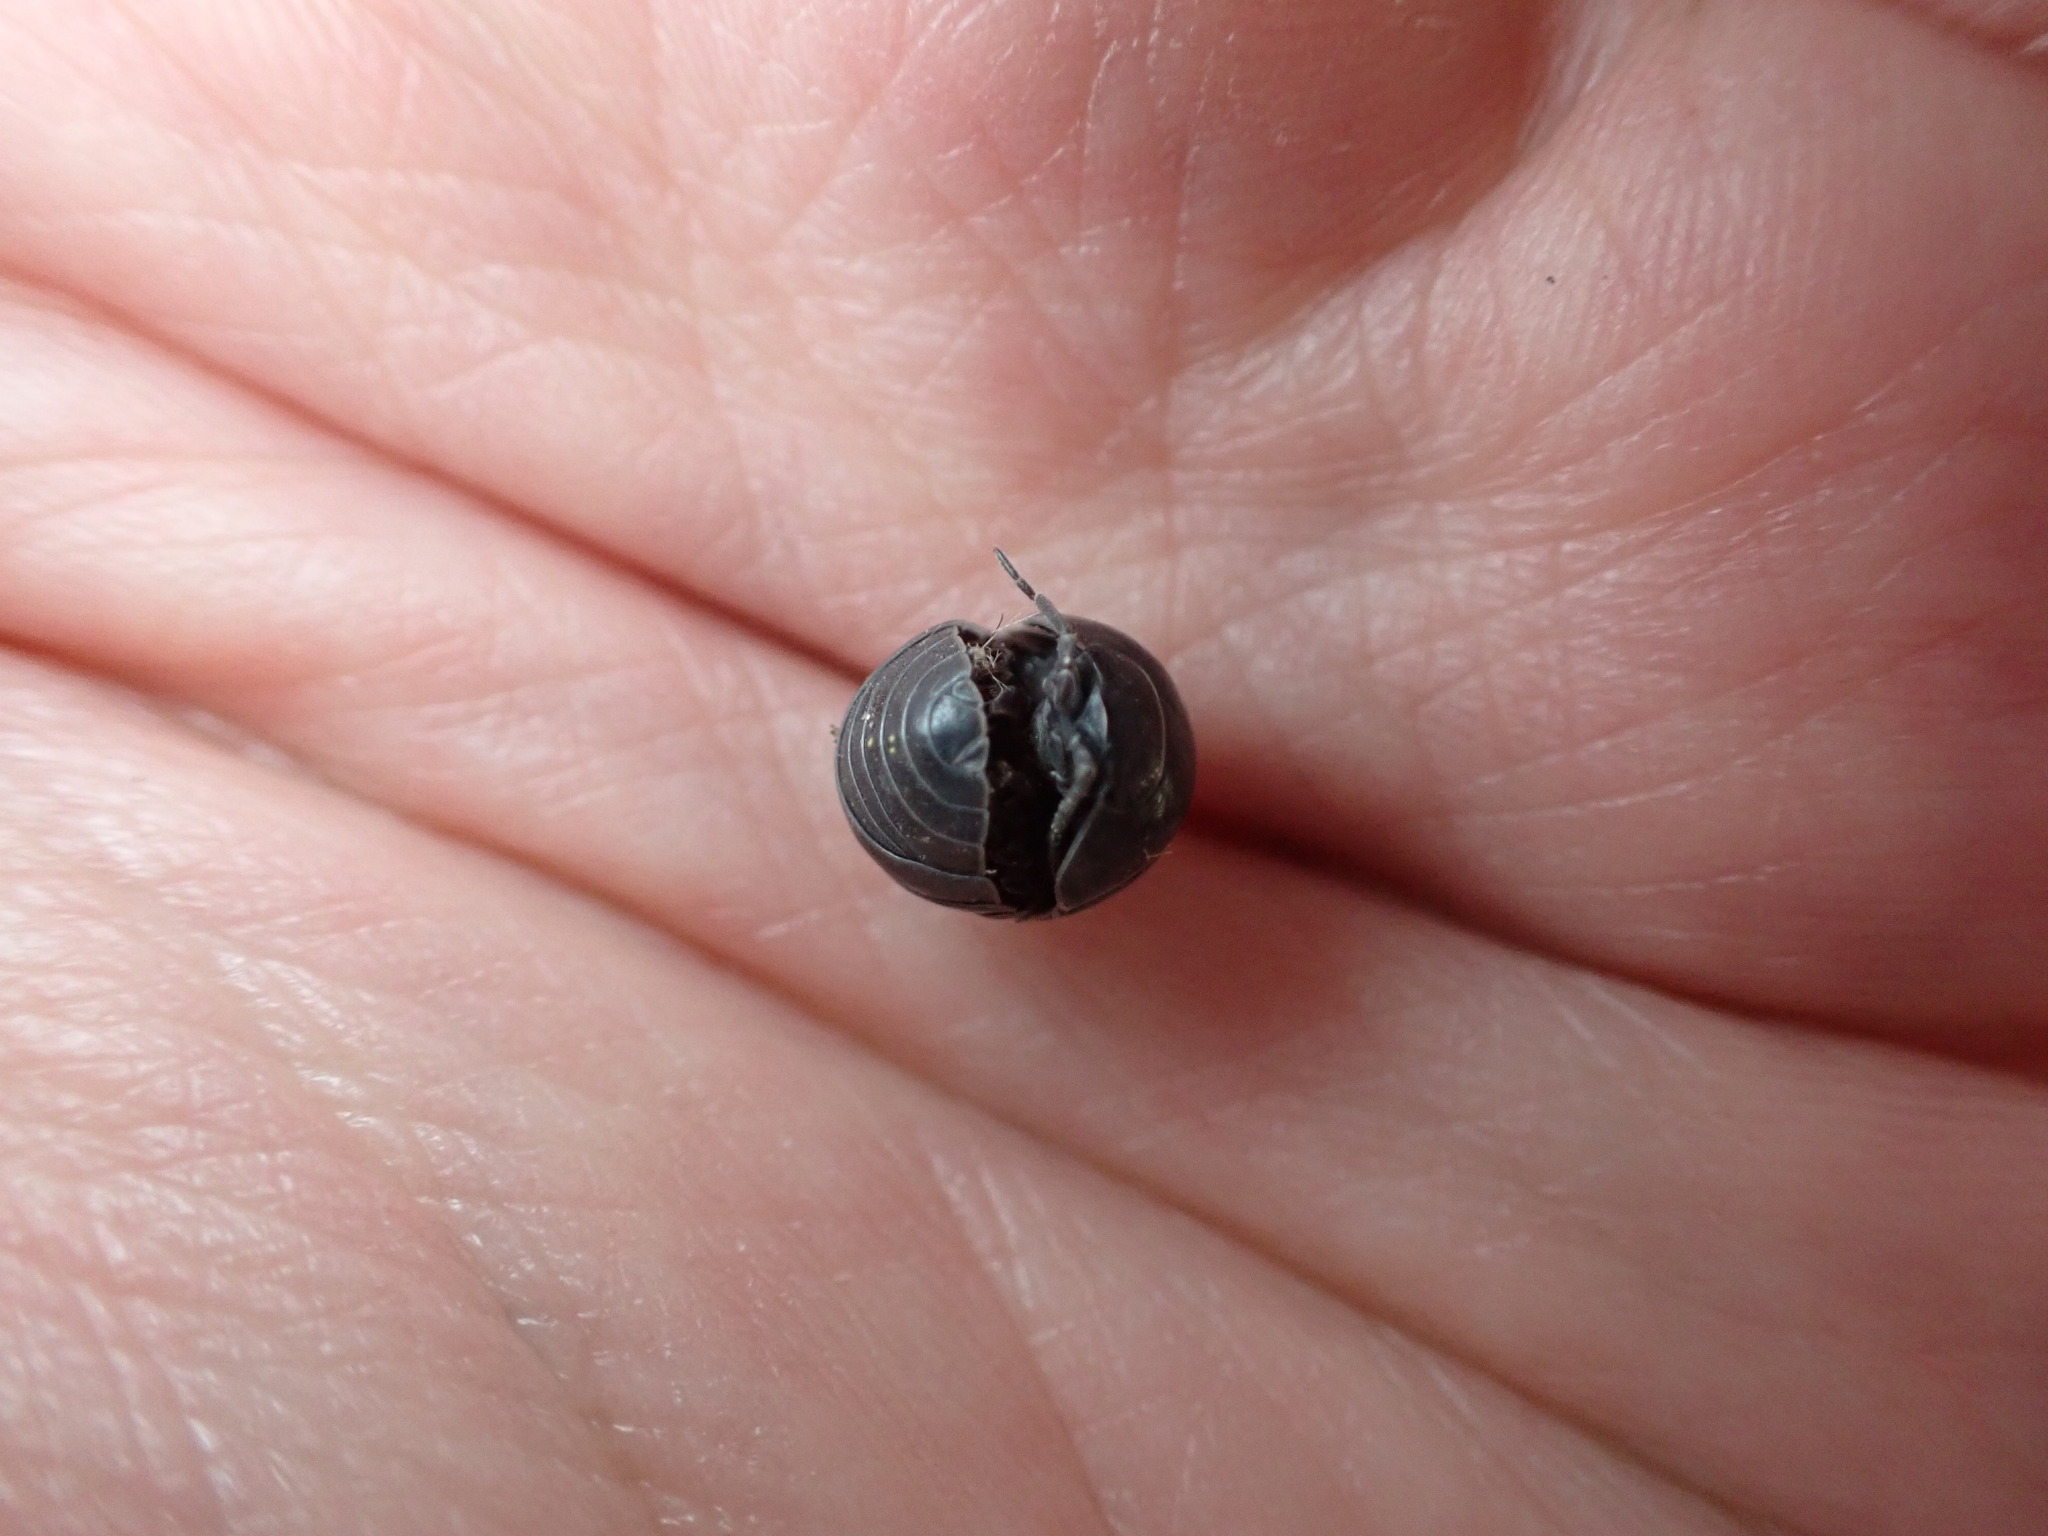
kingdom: Animalia
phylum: Arthropoda
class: Malacostraca
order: Isopoda
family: Armadillidiidae
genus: Armadillidium
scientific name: Armadillidium vulgare
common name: Common pill woodlouse
